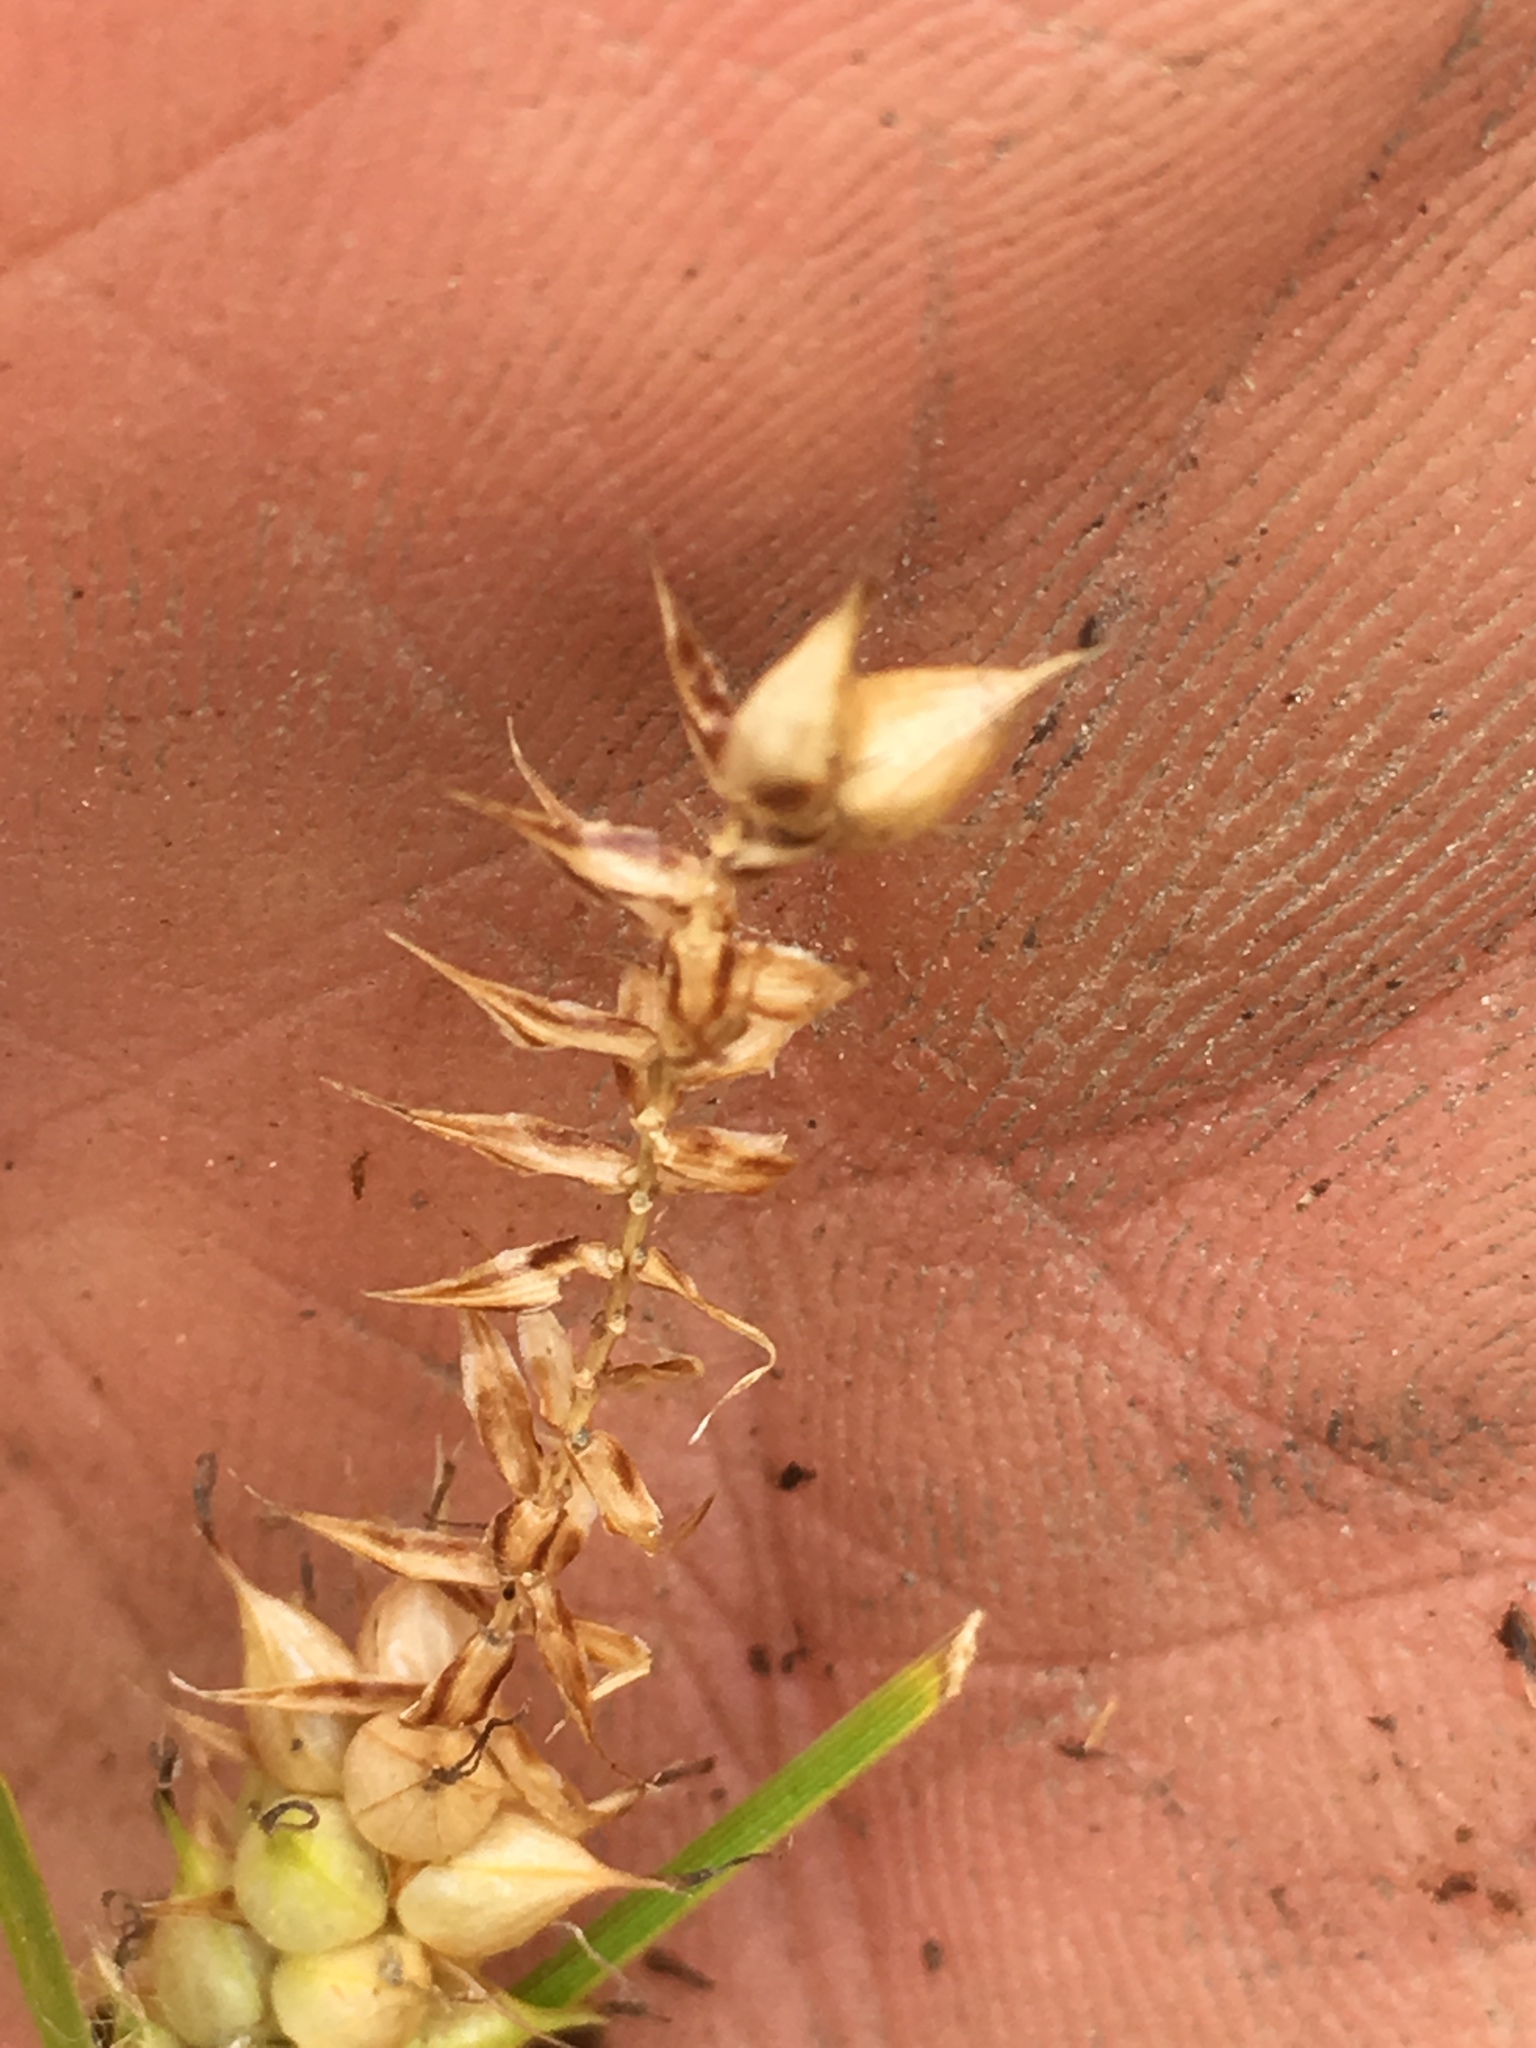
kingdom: Plantae
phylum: Tracheophyta
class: Liliopsida
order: Poales
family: Cyperaceae
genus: Carex
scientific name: Carex vesicaria
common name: Bladder-sedge
